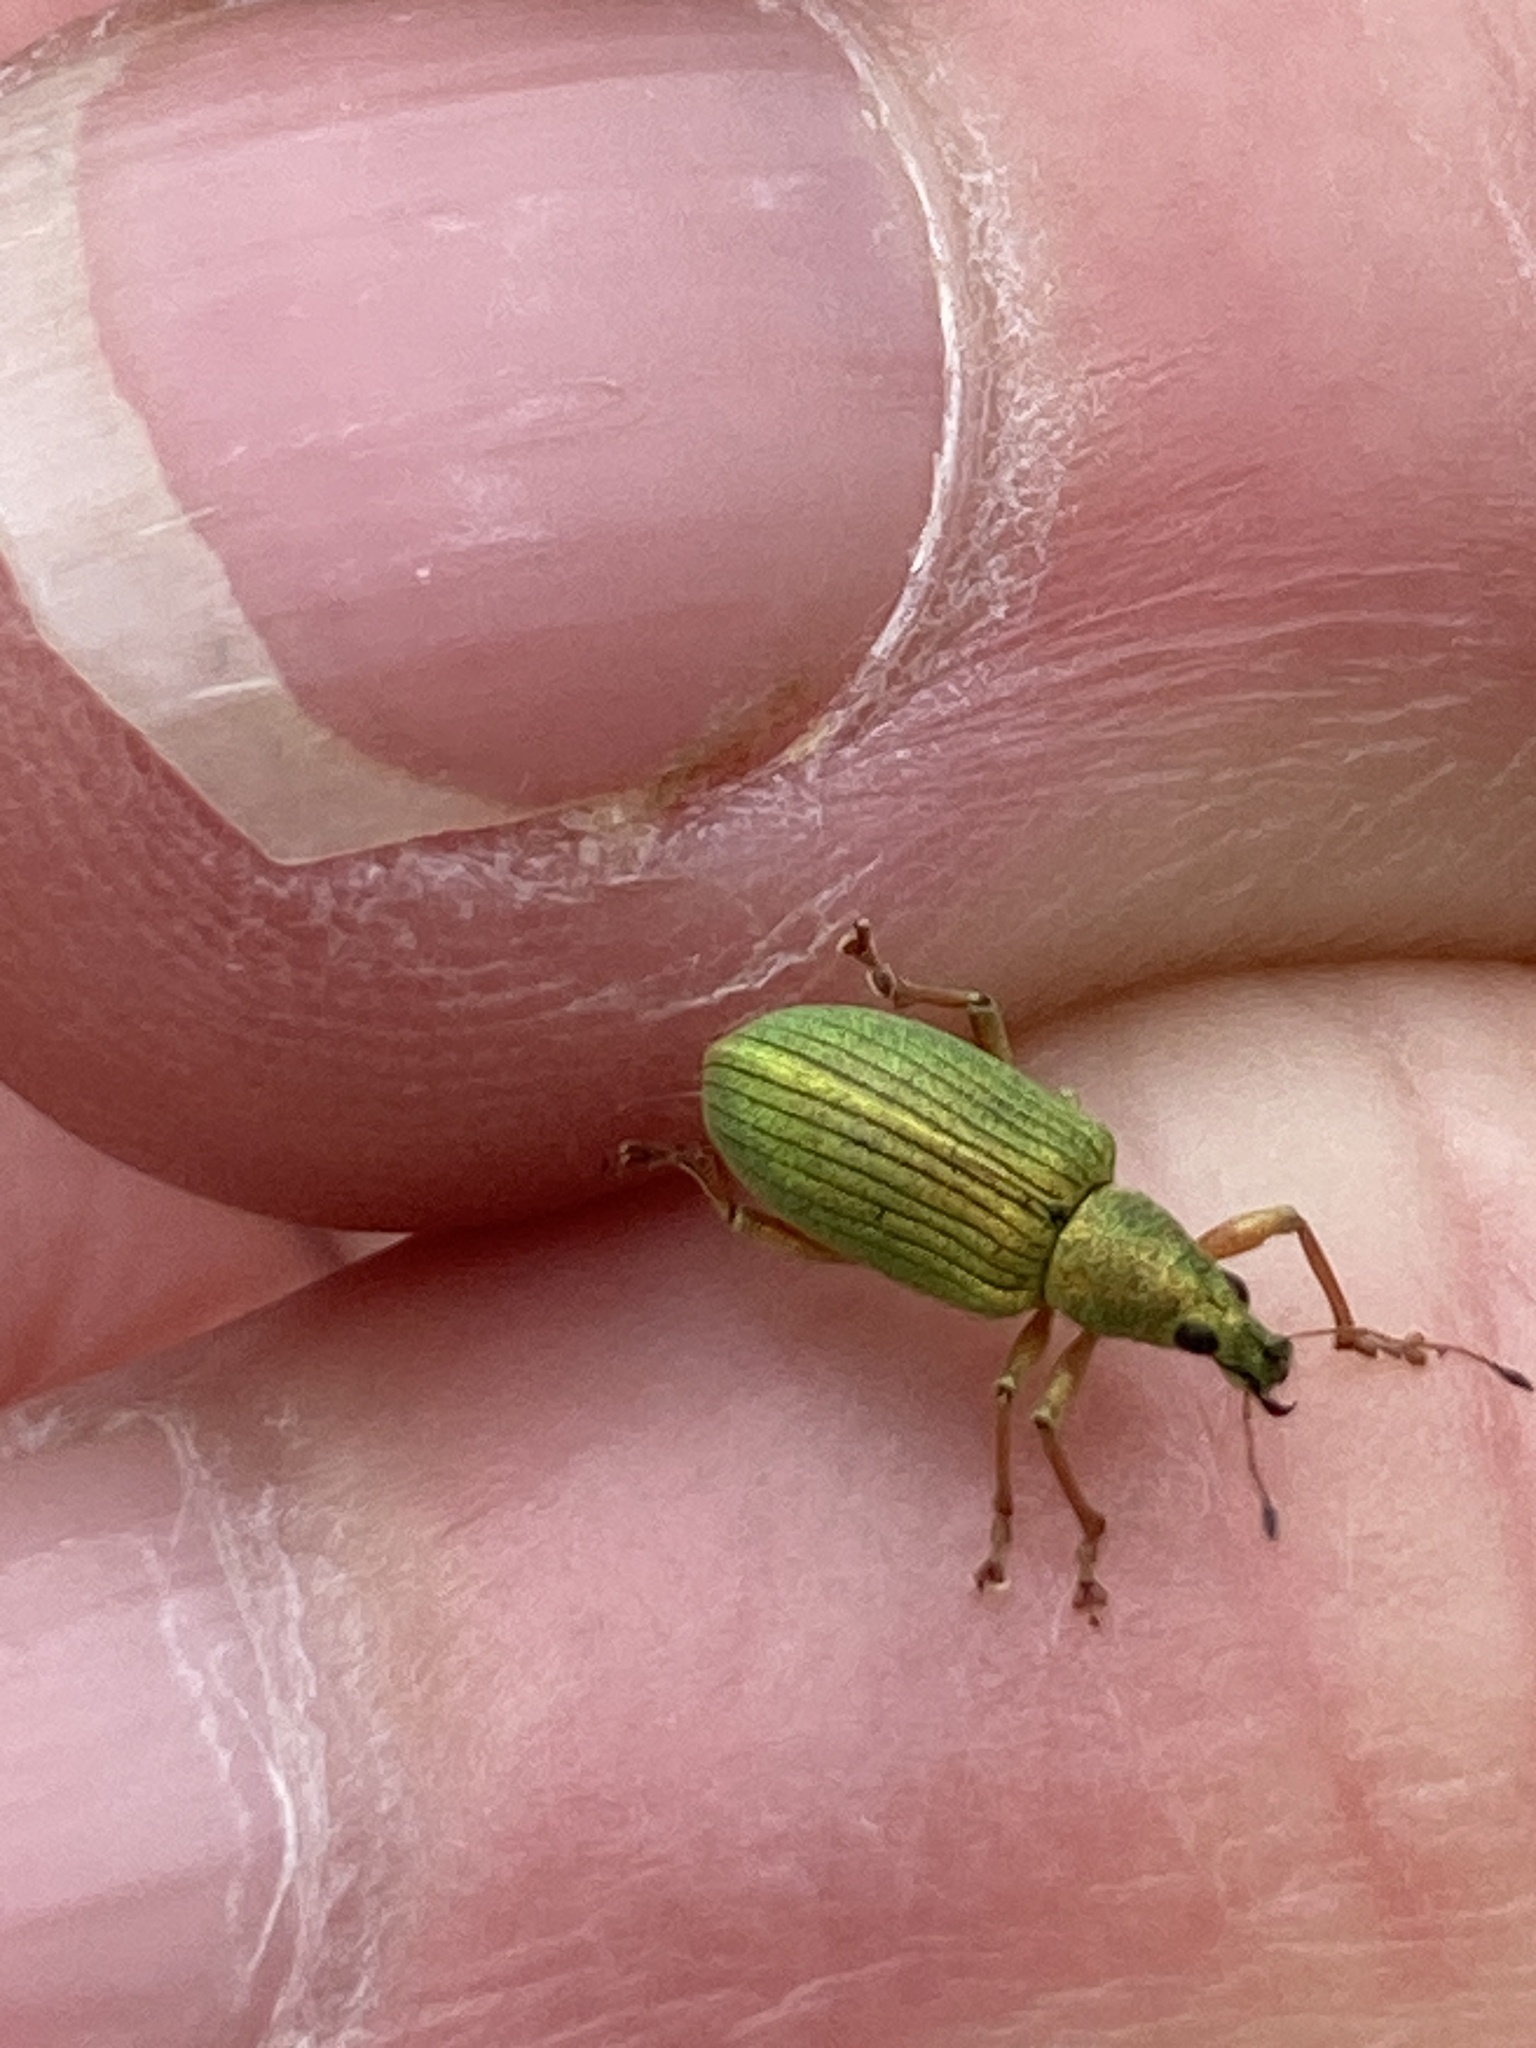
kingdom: Animalia
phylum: Arthropoda
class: Insecta
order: Coleoptera
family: Curculionidae
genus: Polydrusus
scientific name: Polydrusus formosus
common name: Weevil
